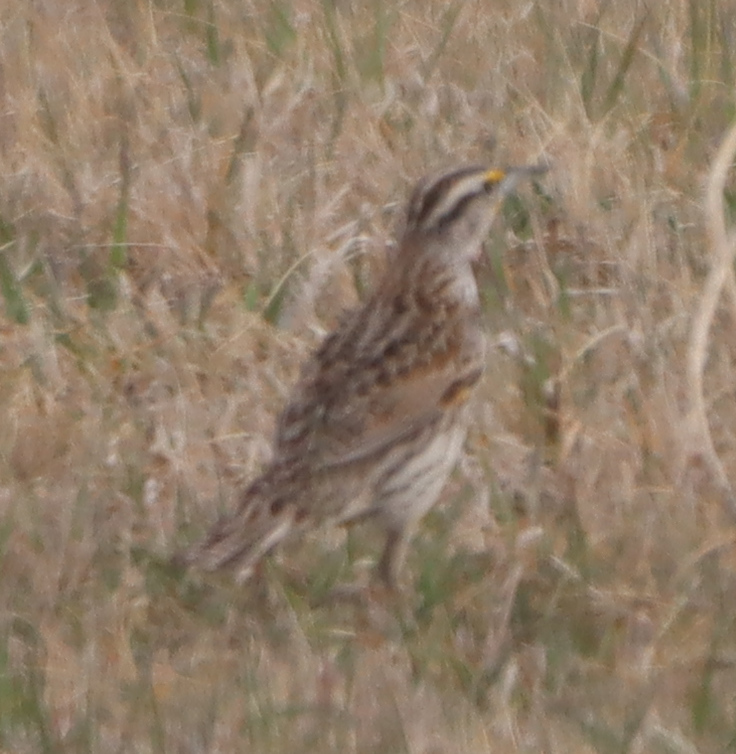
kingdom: Animalia
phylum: Chordata
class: Aves
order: Passeriformes
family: Icteridae
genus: Sturnella
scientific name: Sturnella neglecta
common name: Western meadowlark
